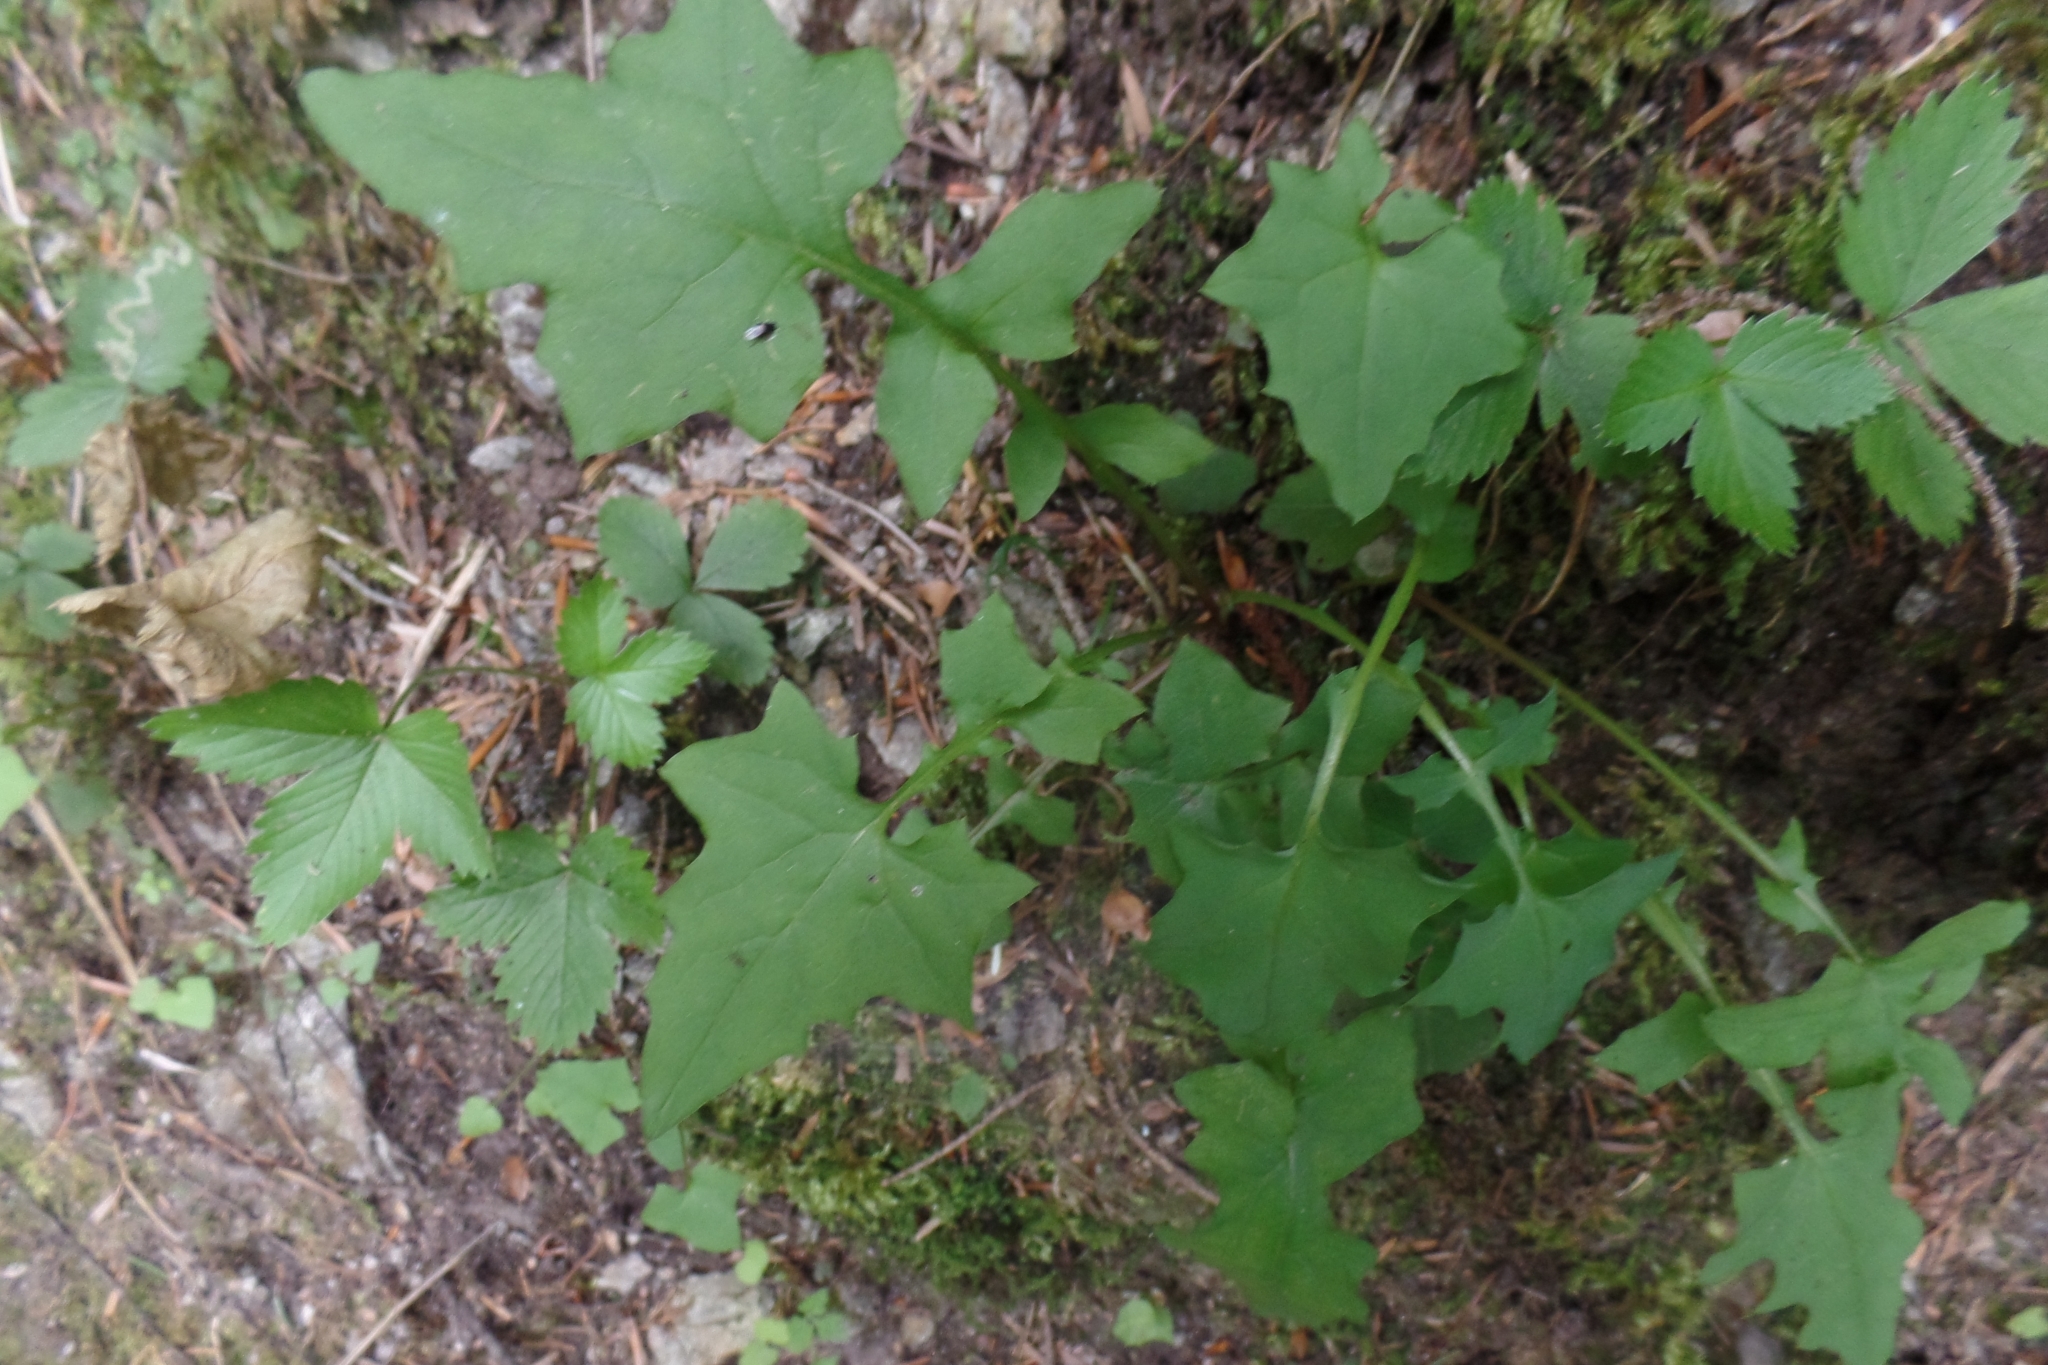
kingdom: Plantae
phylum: Tracheophyta
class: Magnoliopsida
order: Asterales
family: Asteraceae
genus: Mycelis
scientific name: Mycelis muralis
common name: Wall lettuce
